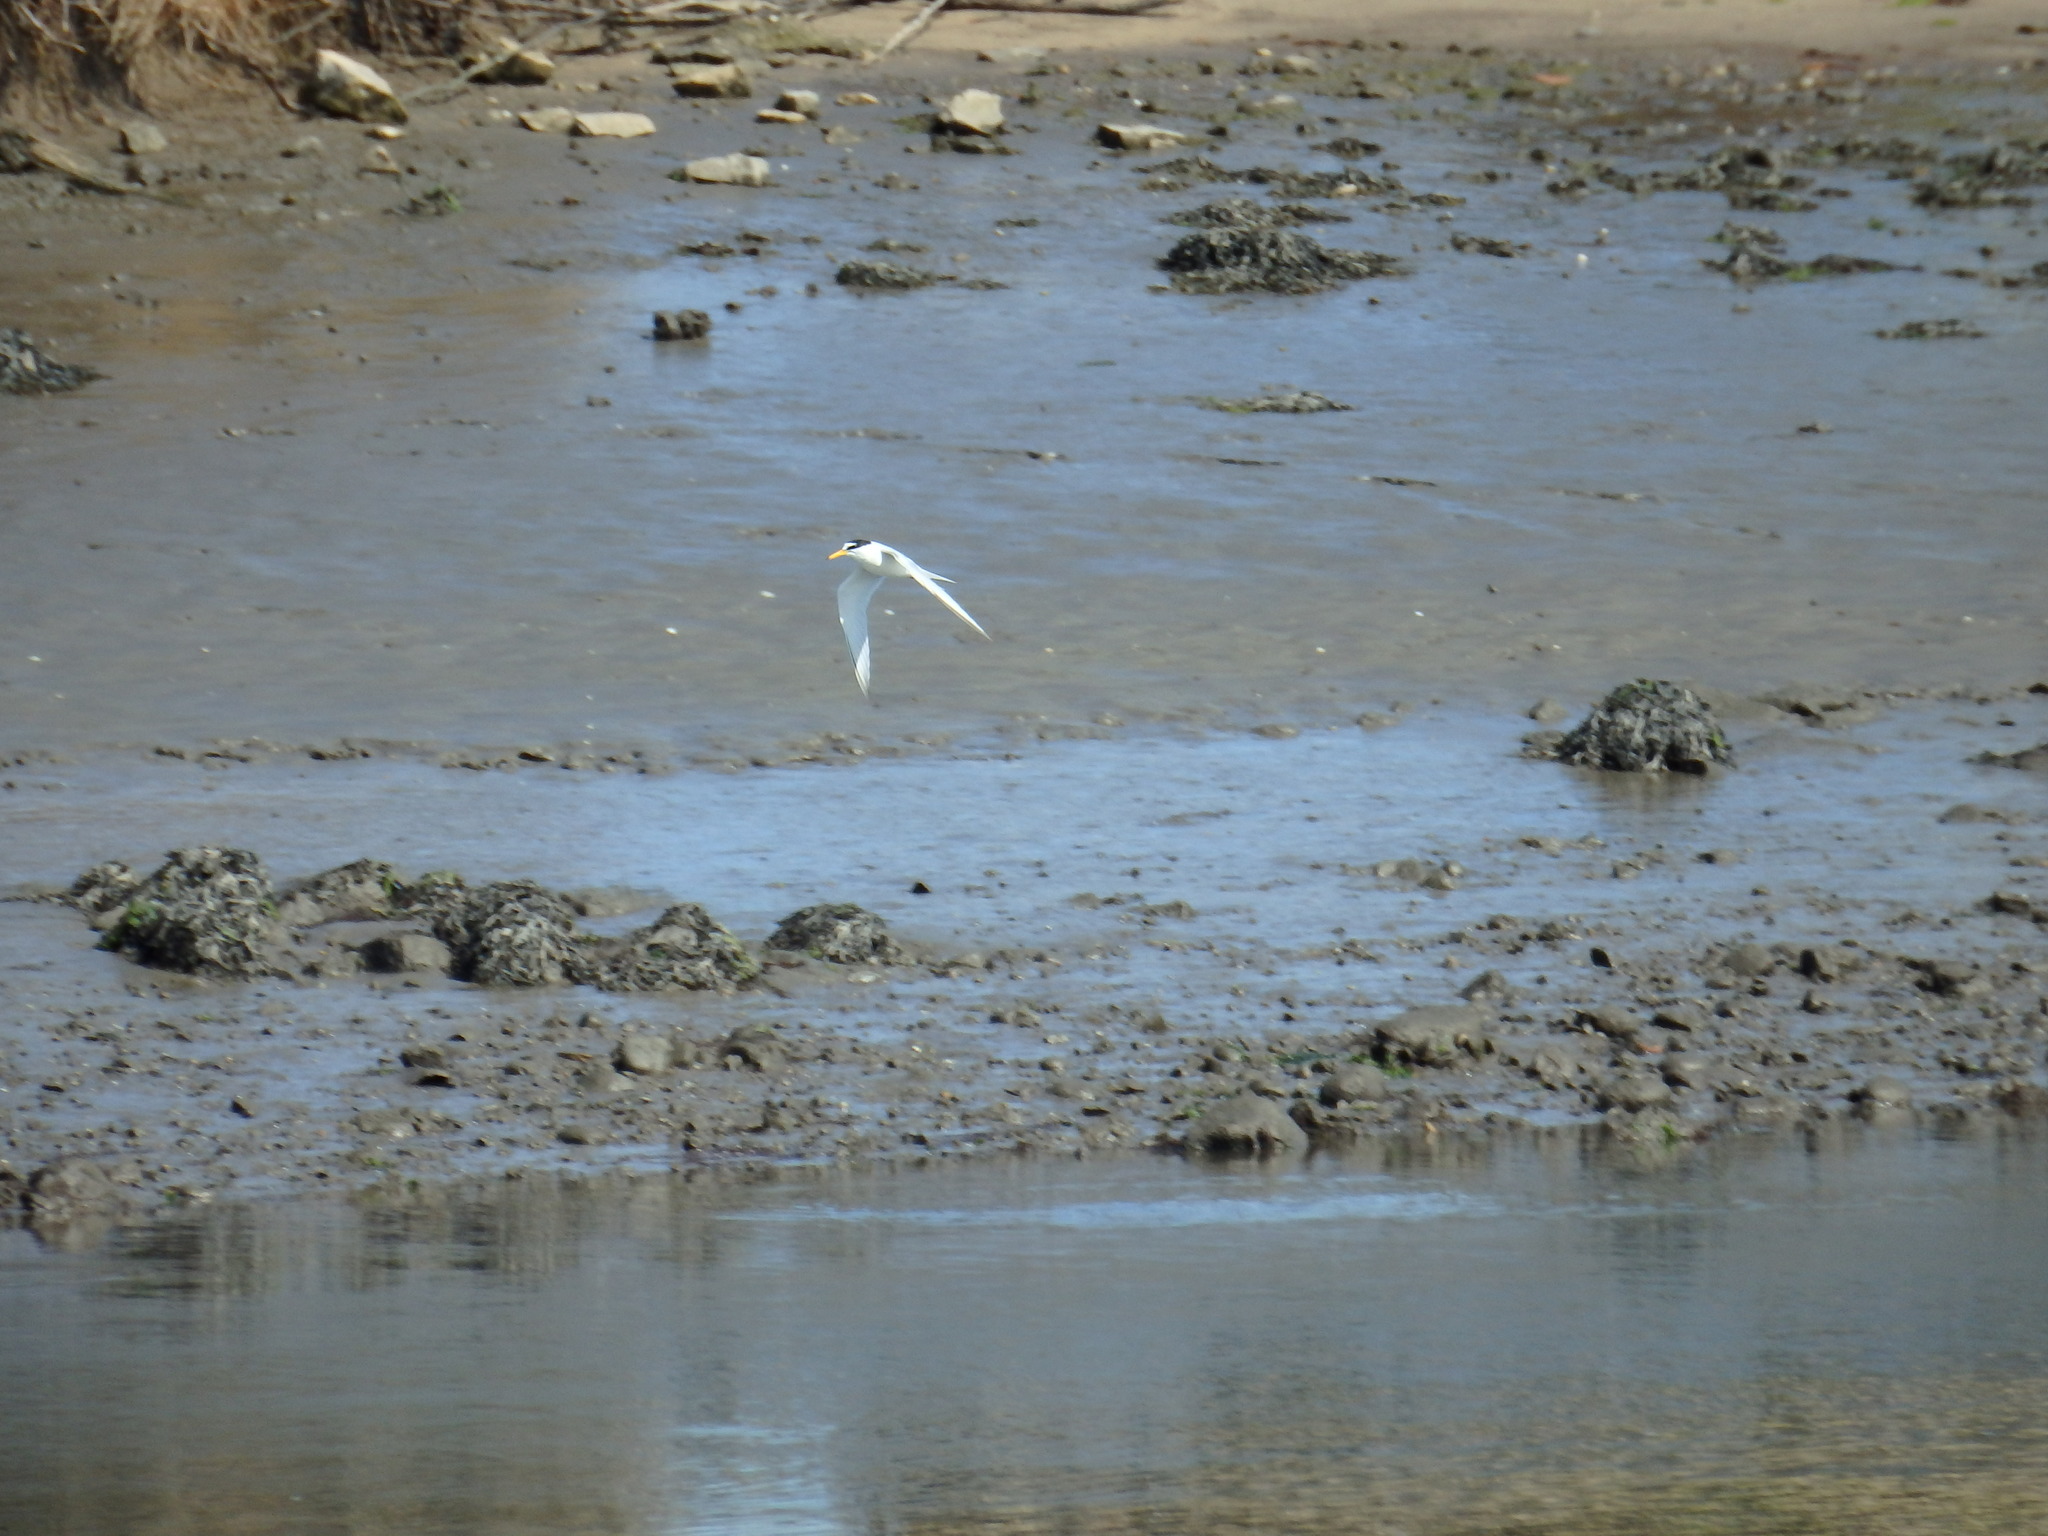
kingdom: Animalia
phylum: Chordata
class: Aves
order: Charadriiformes
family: Laridae
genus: Sternula
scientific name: Sternula albifrons
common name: Little tern
